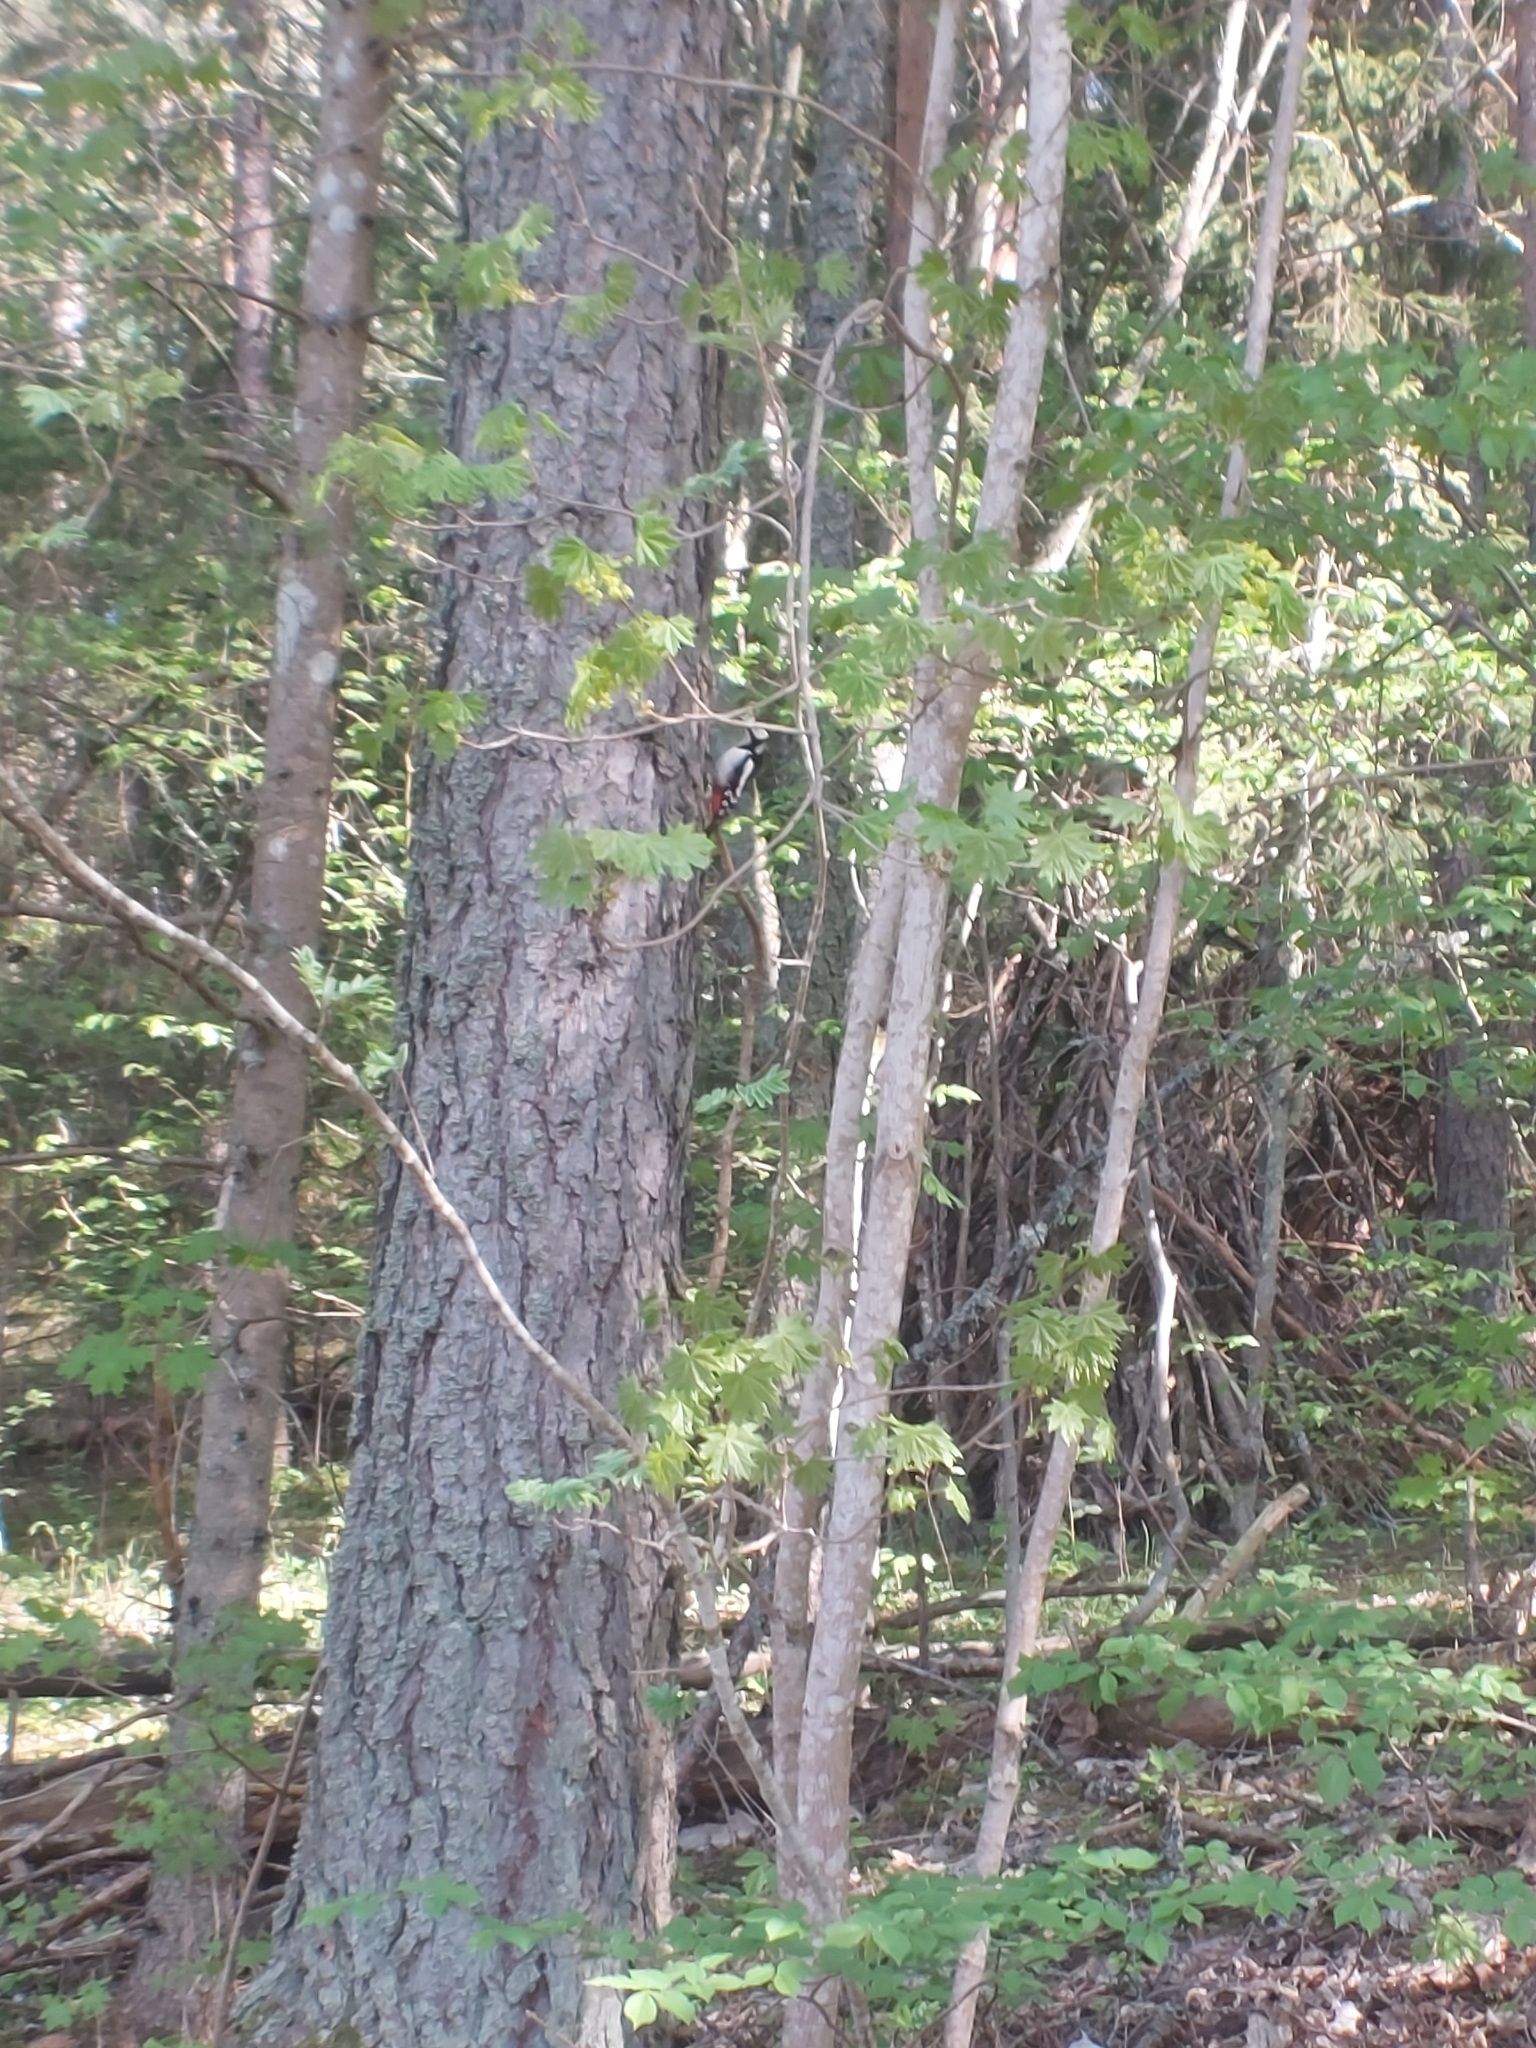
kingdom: Animalia
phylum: Chordata
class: Aves
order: Piciformes
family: Picidae
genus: Dendrocopos
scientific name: Dendrocopos major
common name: Great spotted woodpecker
